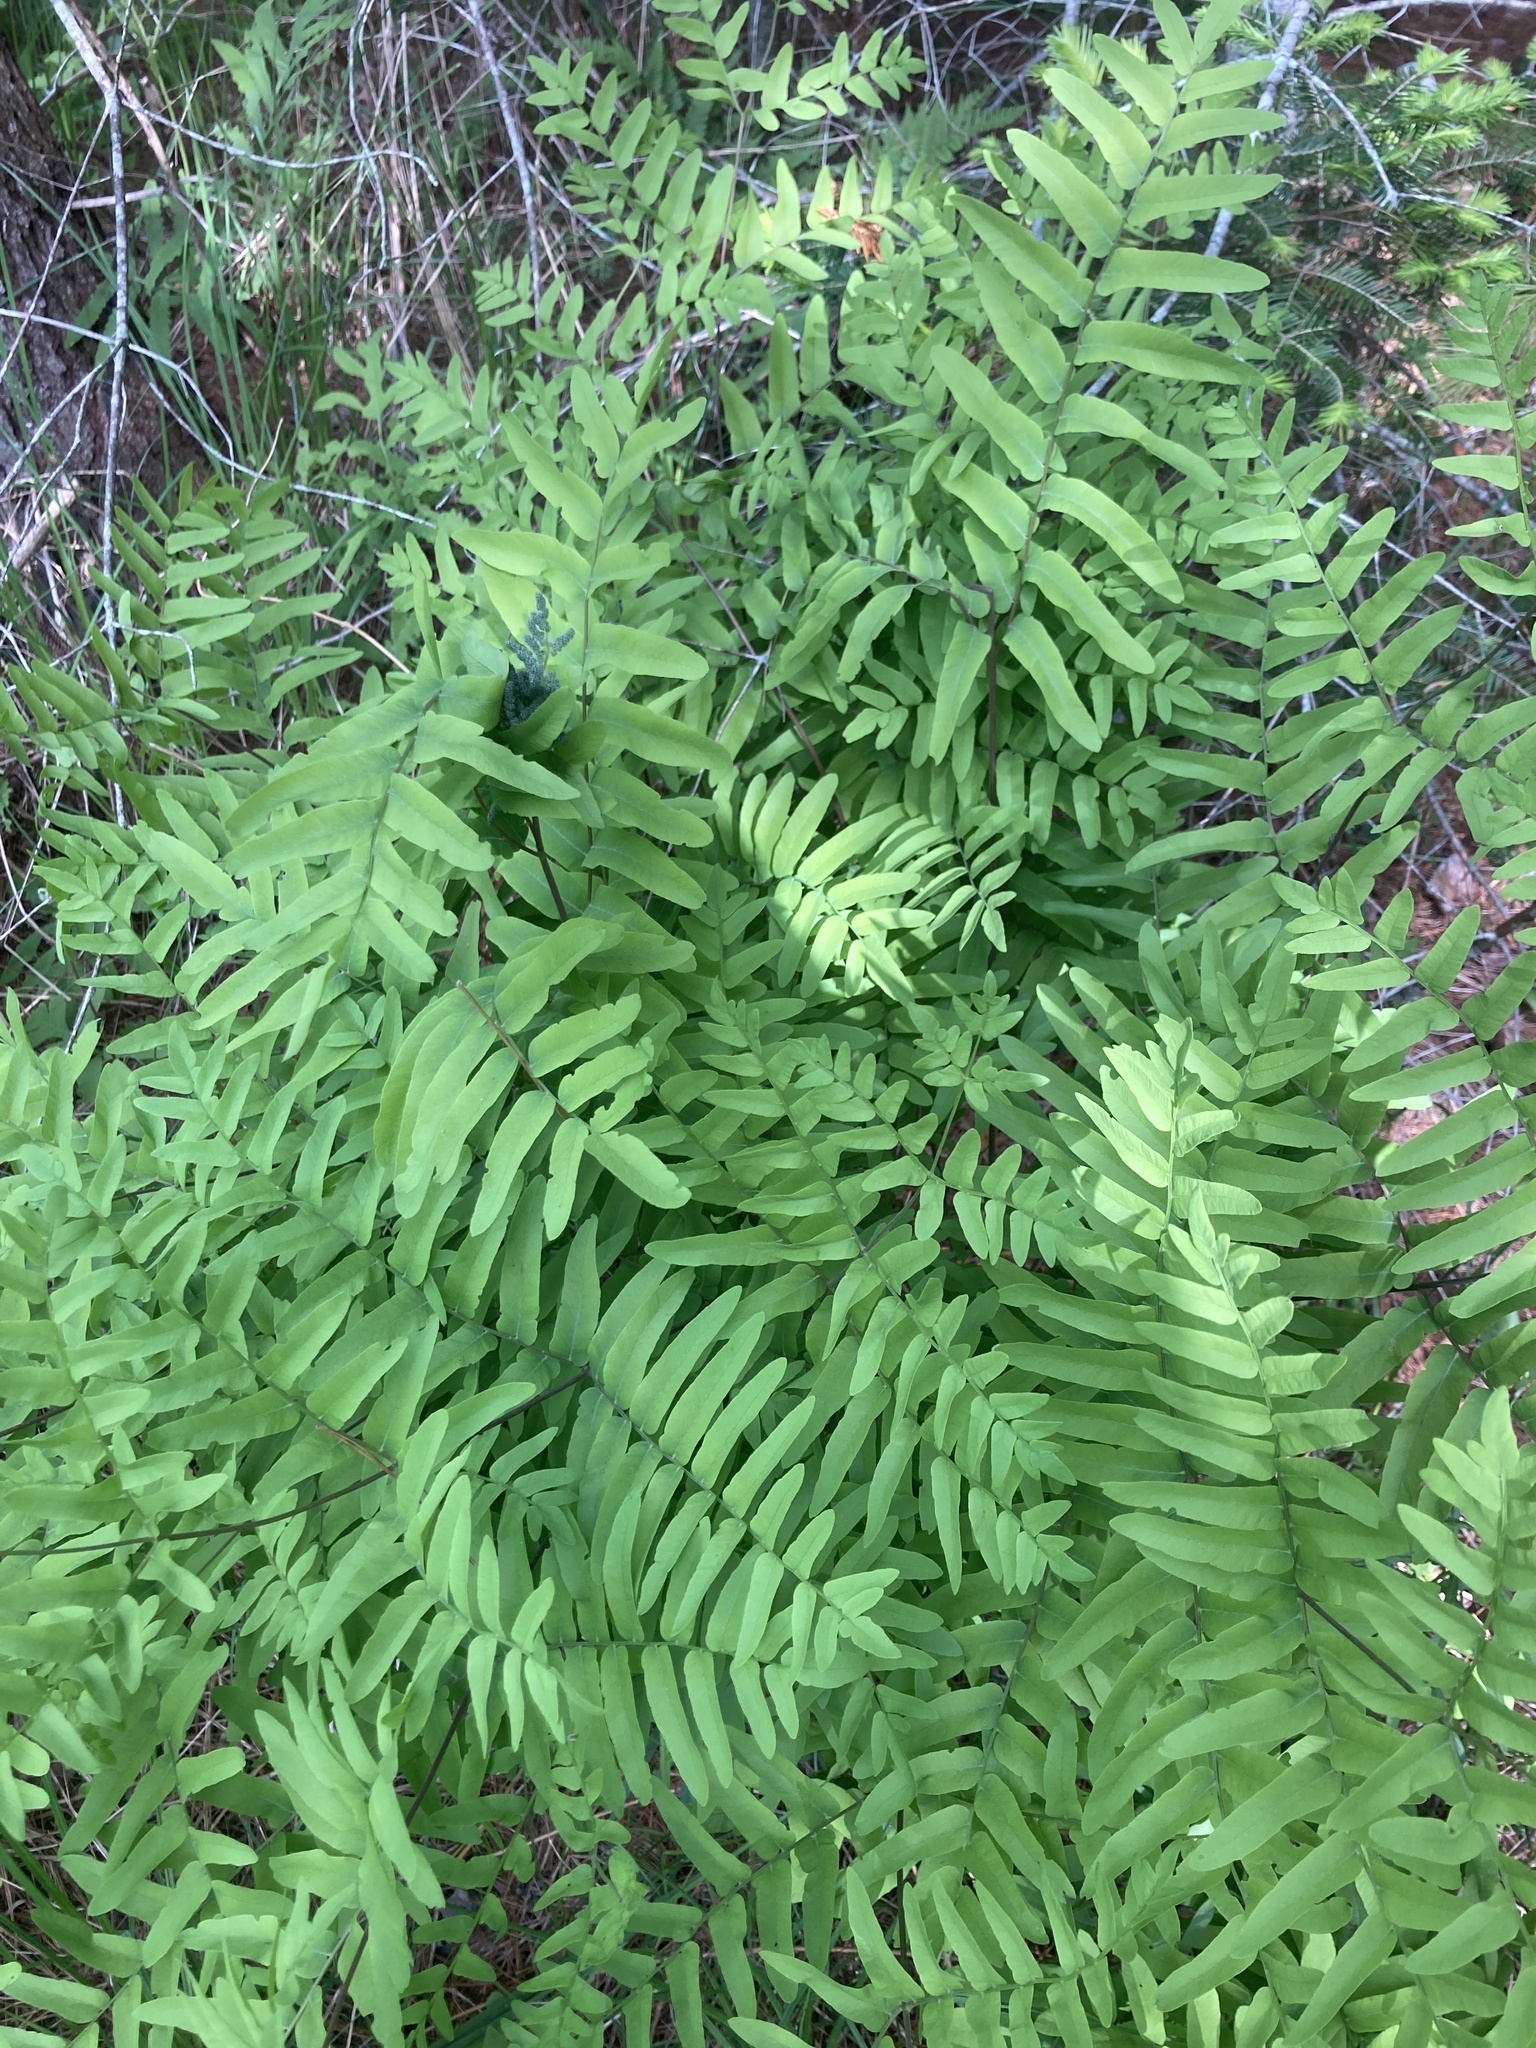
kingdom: Plantae
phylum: Tracheophyta
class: Polypodiopsida
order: Osmundales
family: Osmundaceae
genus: Osmunda
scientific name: Osmunda spectabilis
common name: American royal fern
